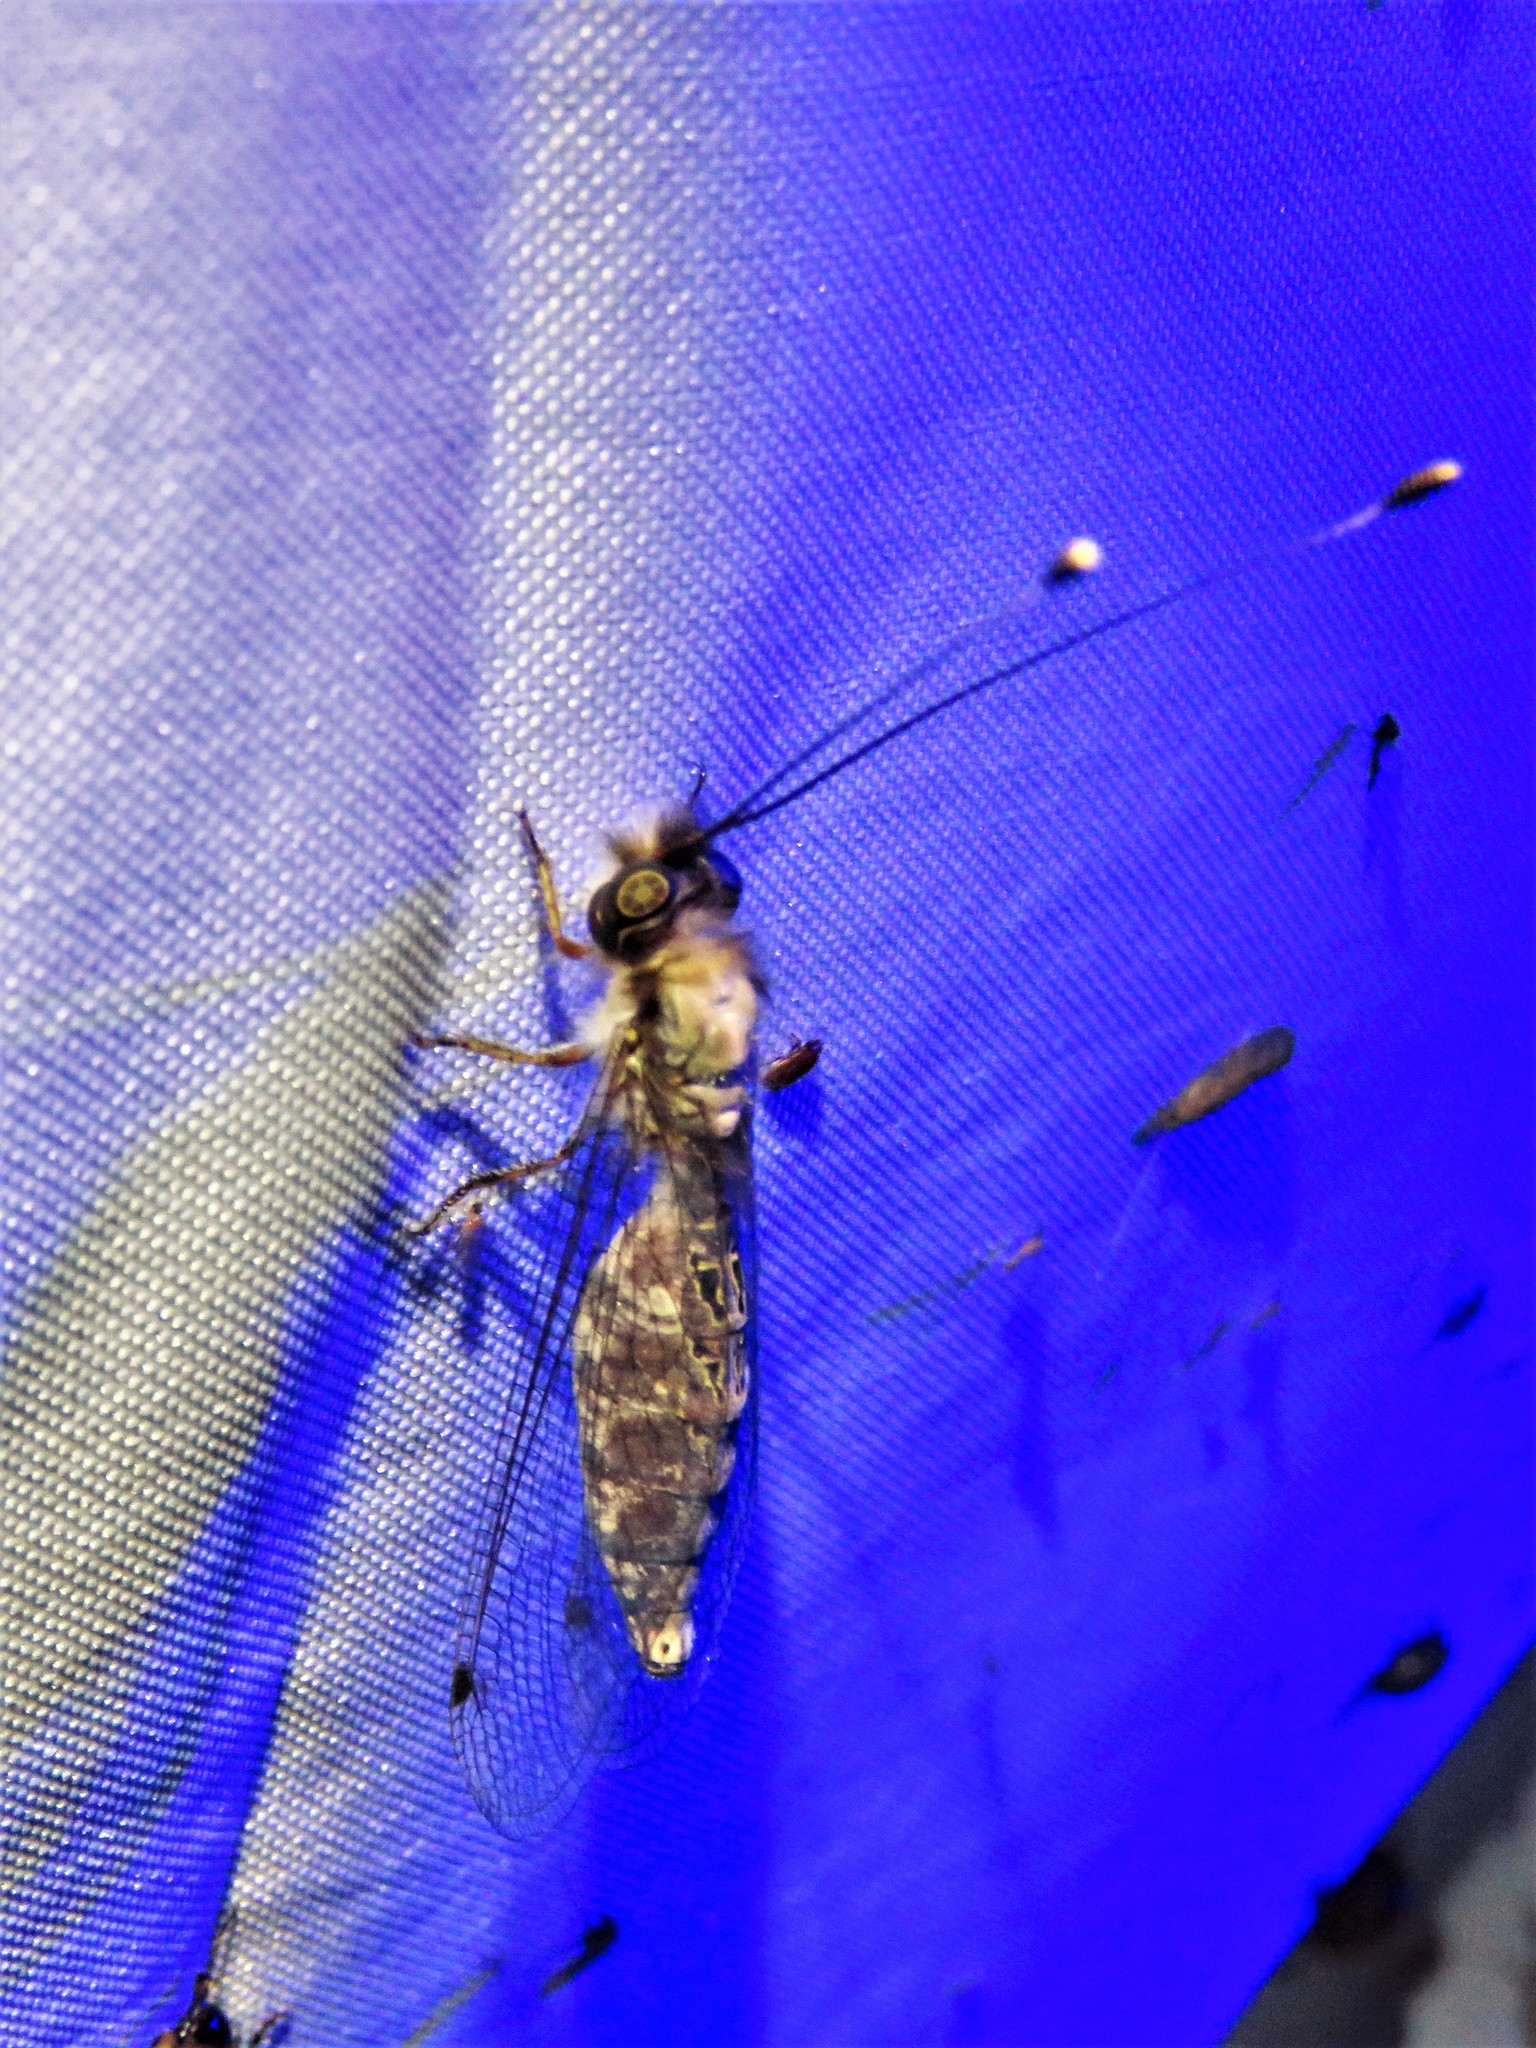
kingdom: Animalia
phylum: Arthropoda
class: Insecta
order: Neuroptera
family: Ascalaphidae
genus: Ululodes
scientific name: Ululodes macleayanus
